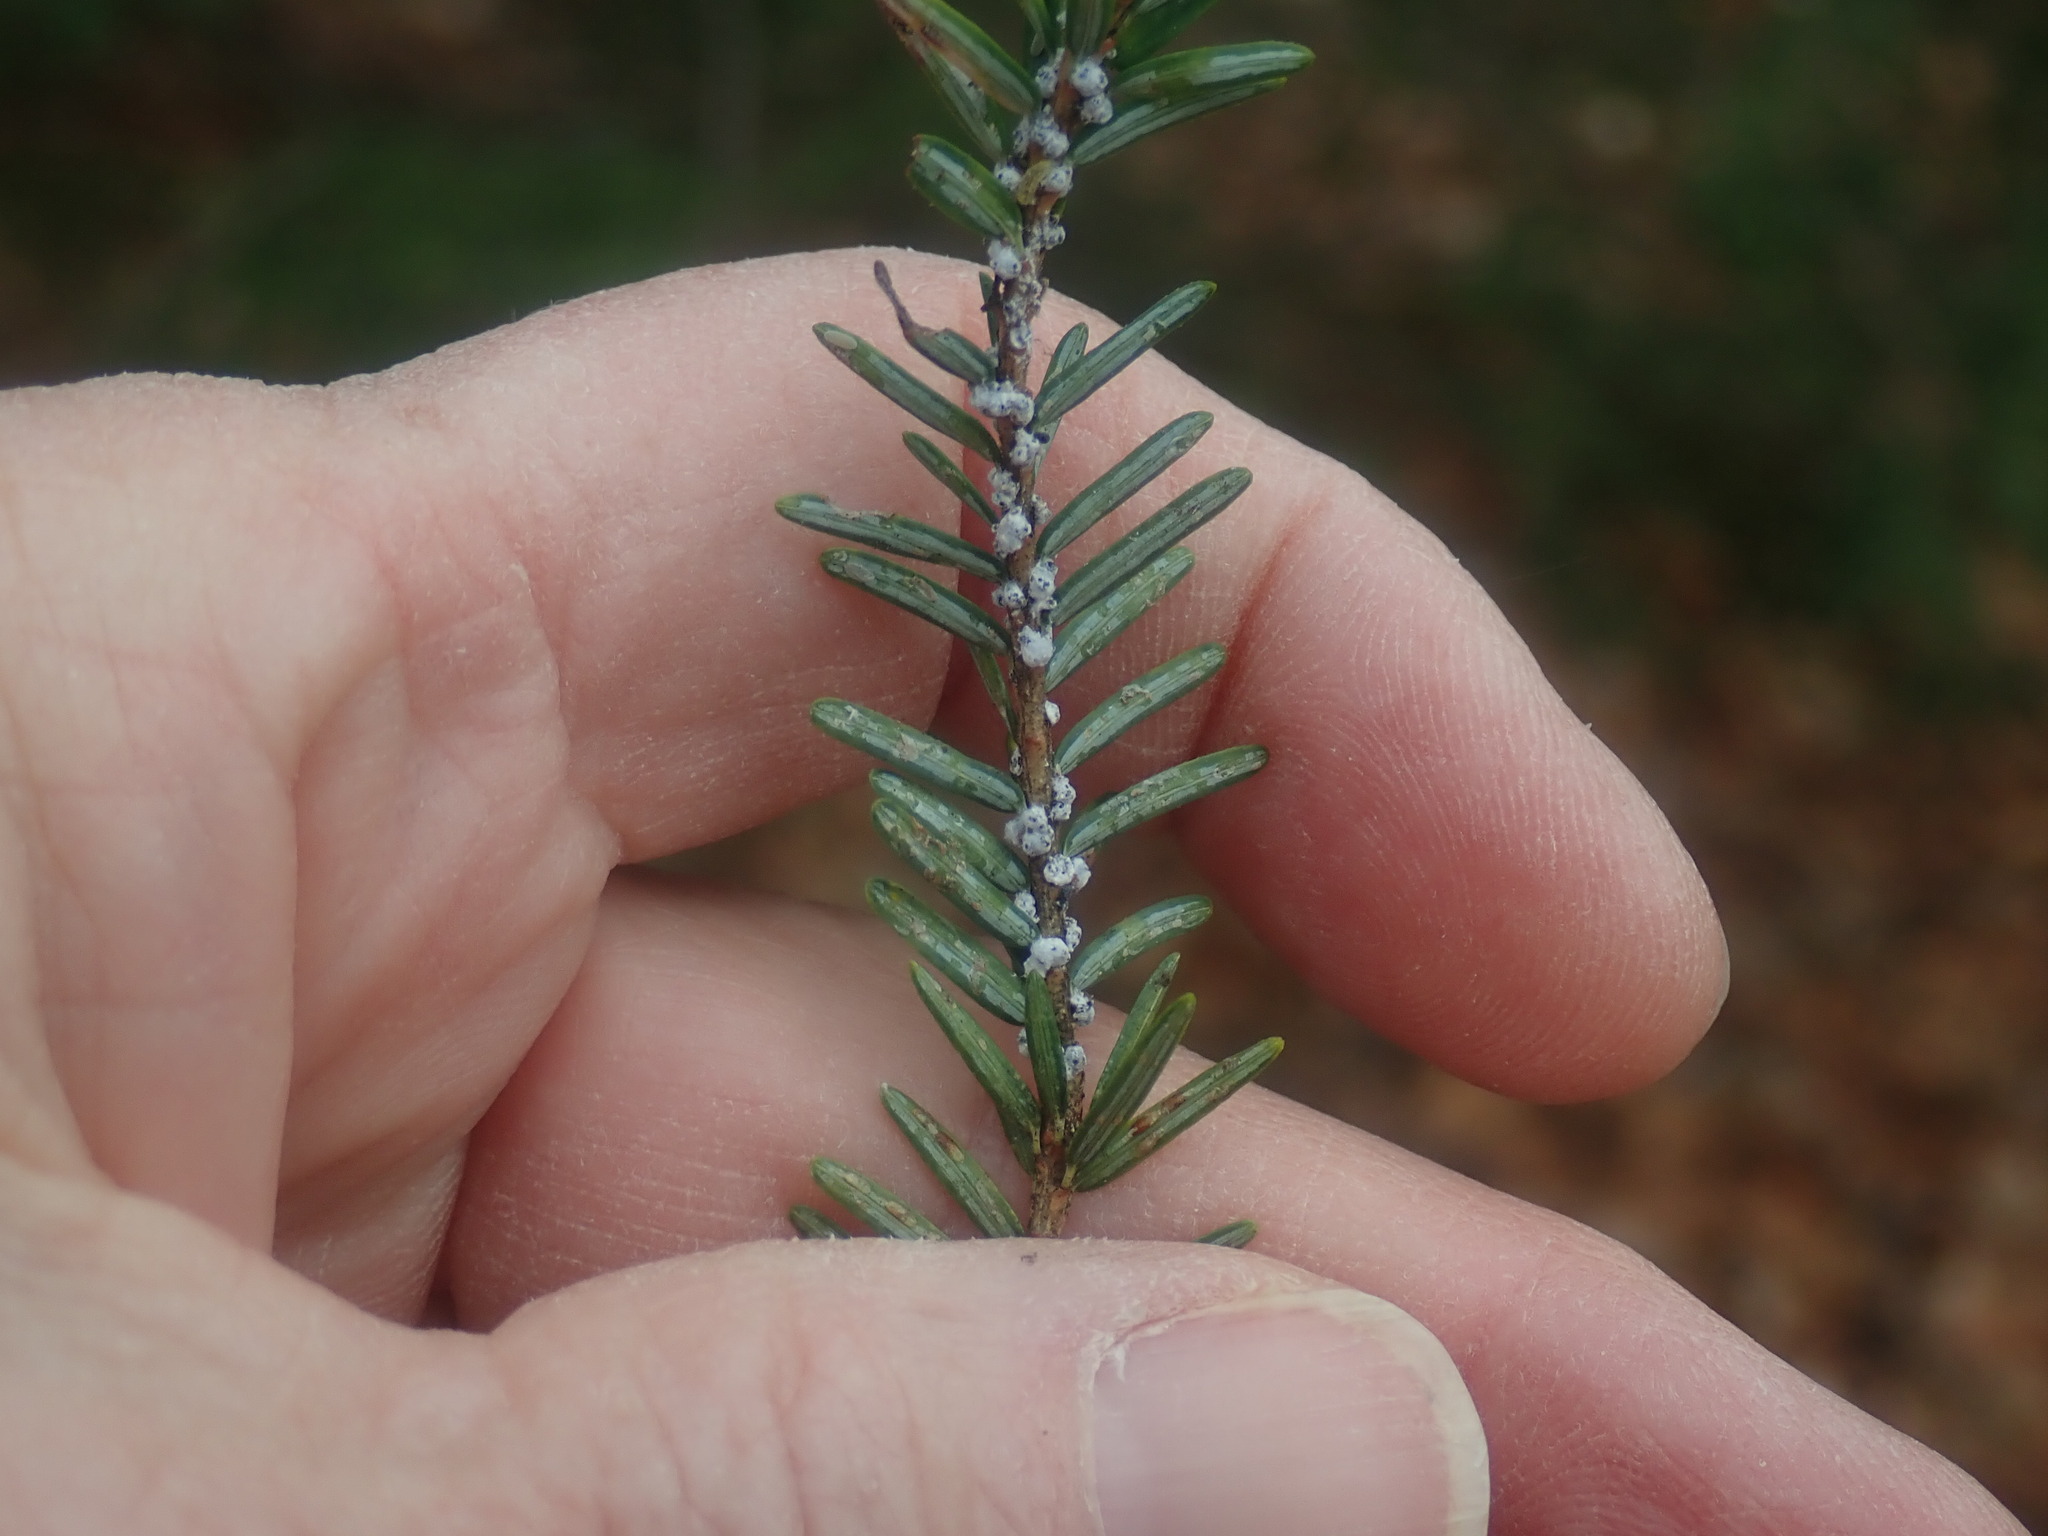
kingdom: Animalia
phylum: Arthropoda
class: Insecta
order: Hemiptera
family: Adelgidae
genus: Adelges
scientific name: Adelges tsugae
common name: Hemlock woolly adelgid
